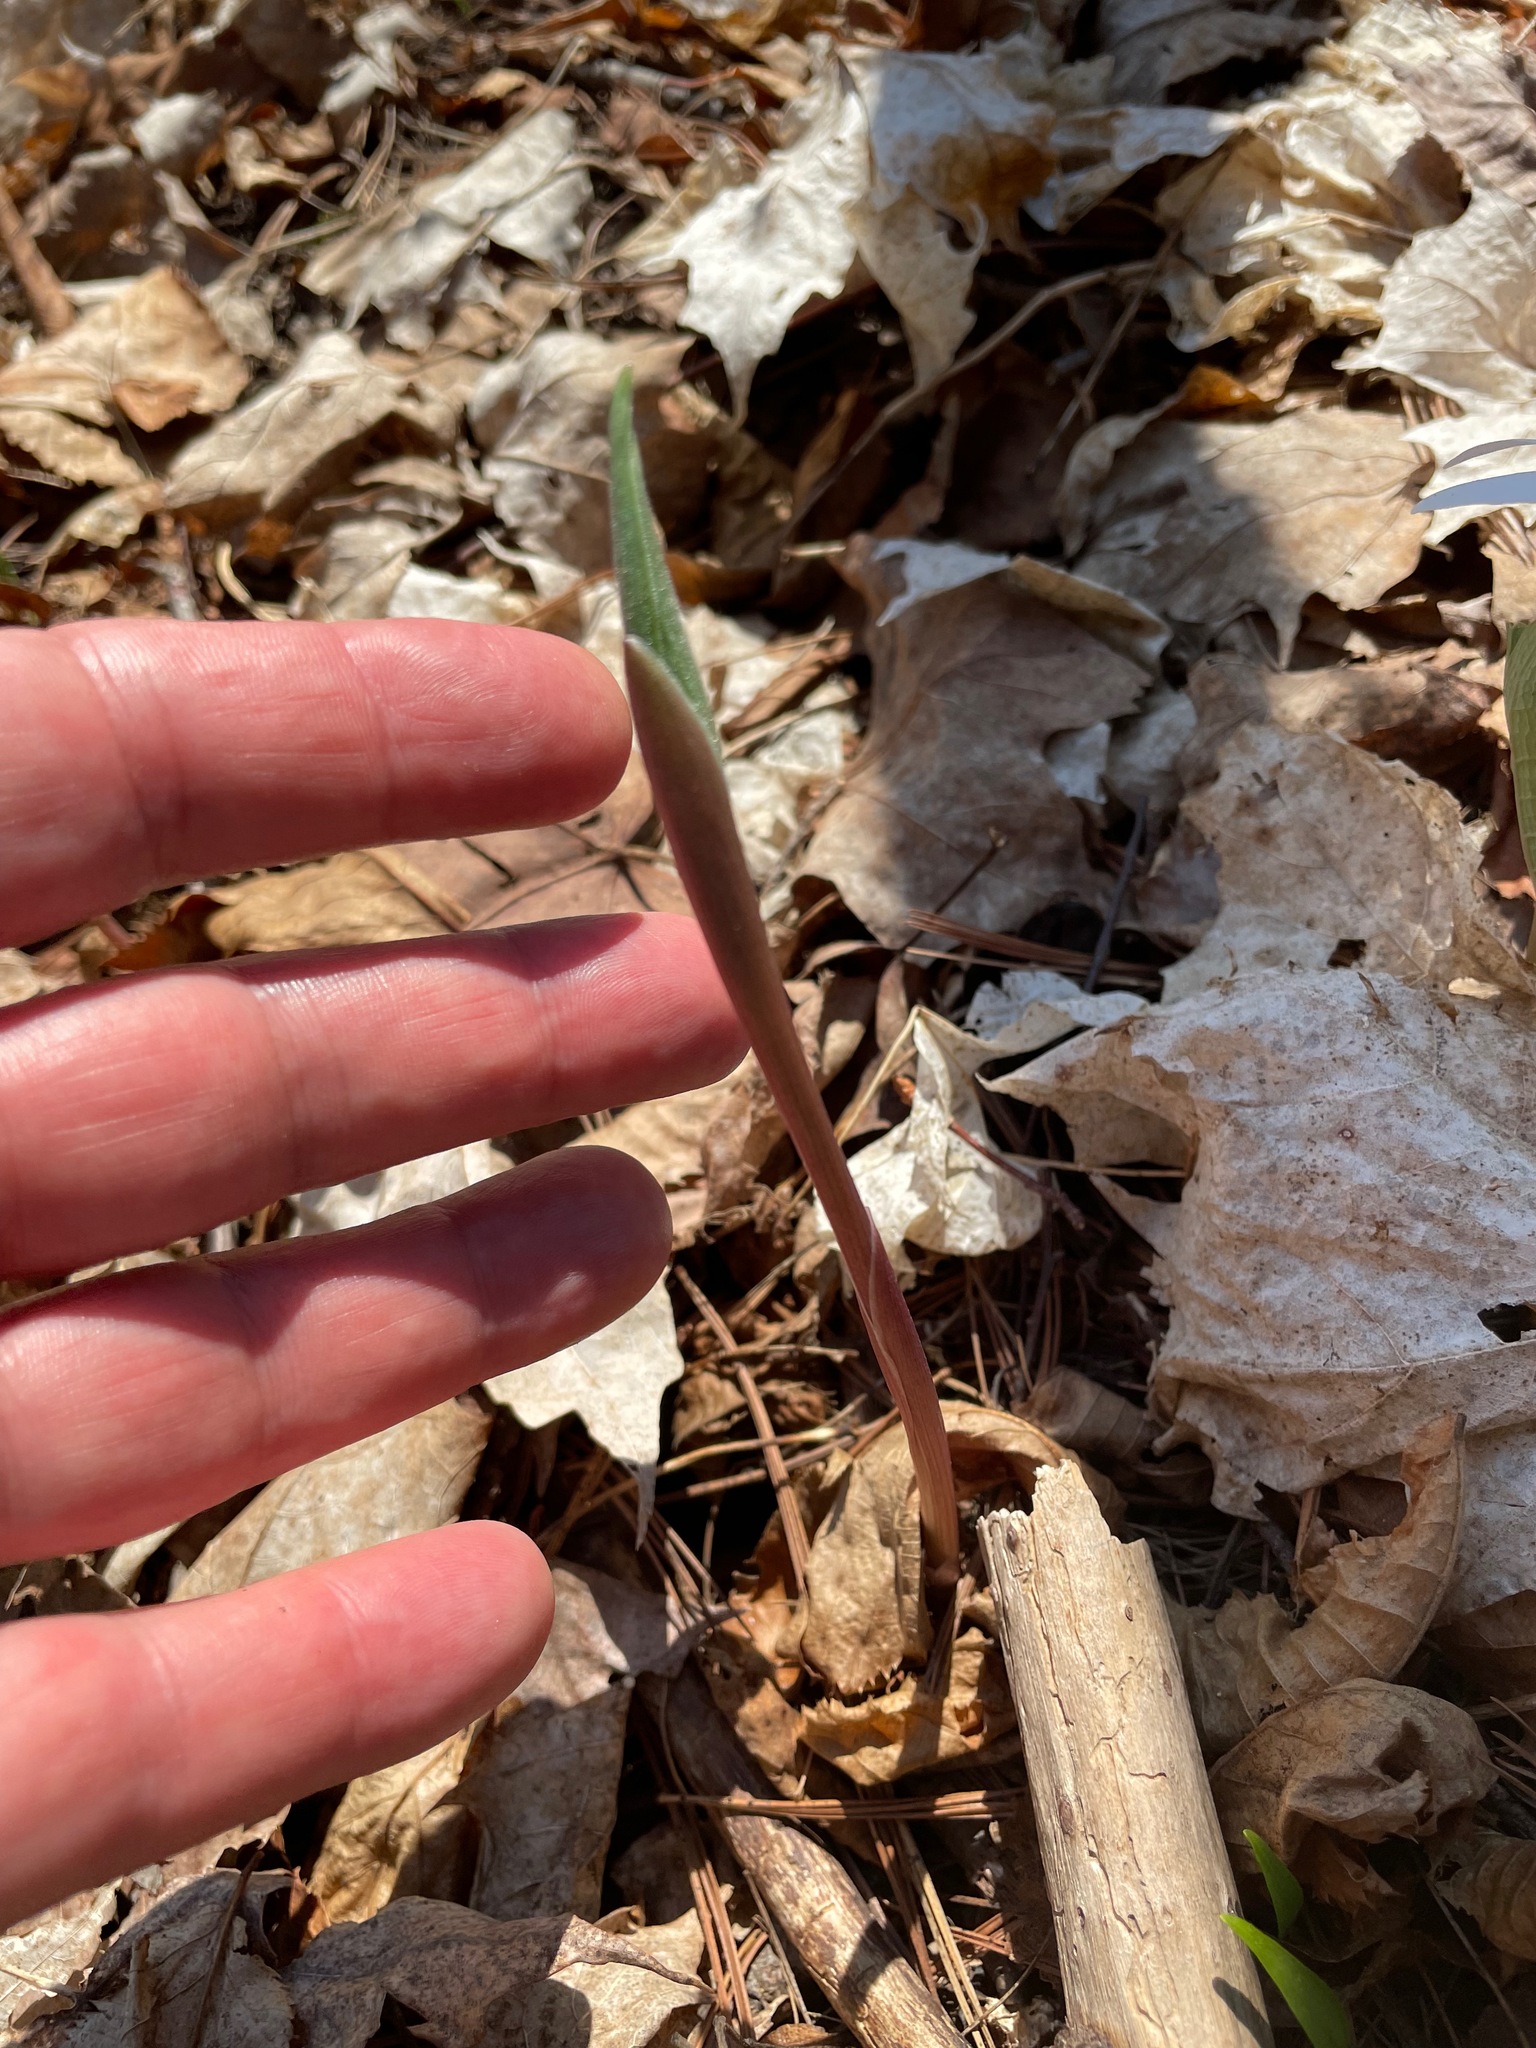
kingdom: Plantae
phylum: Tracheophyta
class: Liliopsida
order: Asparagales
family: Asparagaceae
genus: Maianthemum
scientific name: Maianthemum racemosum
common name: False spikenard
